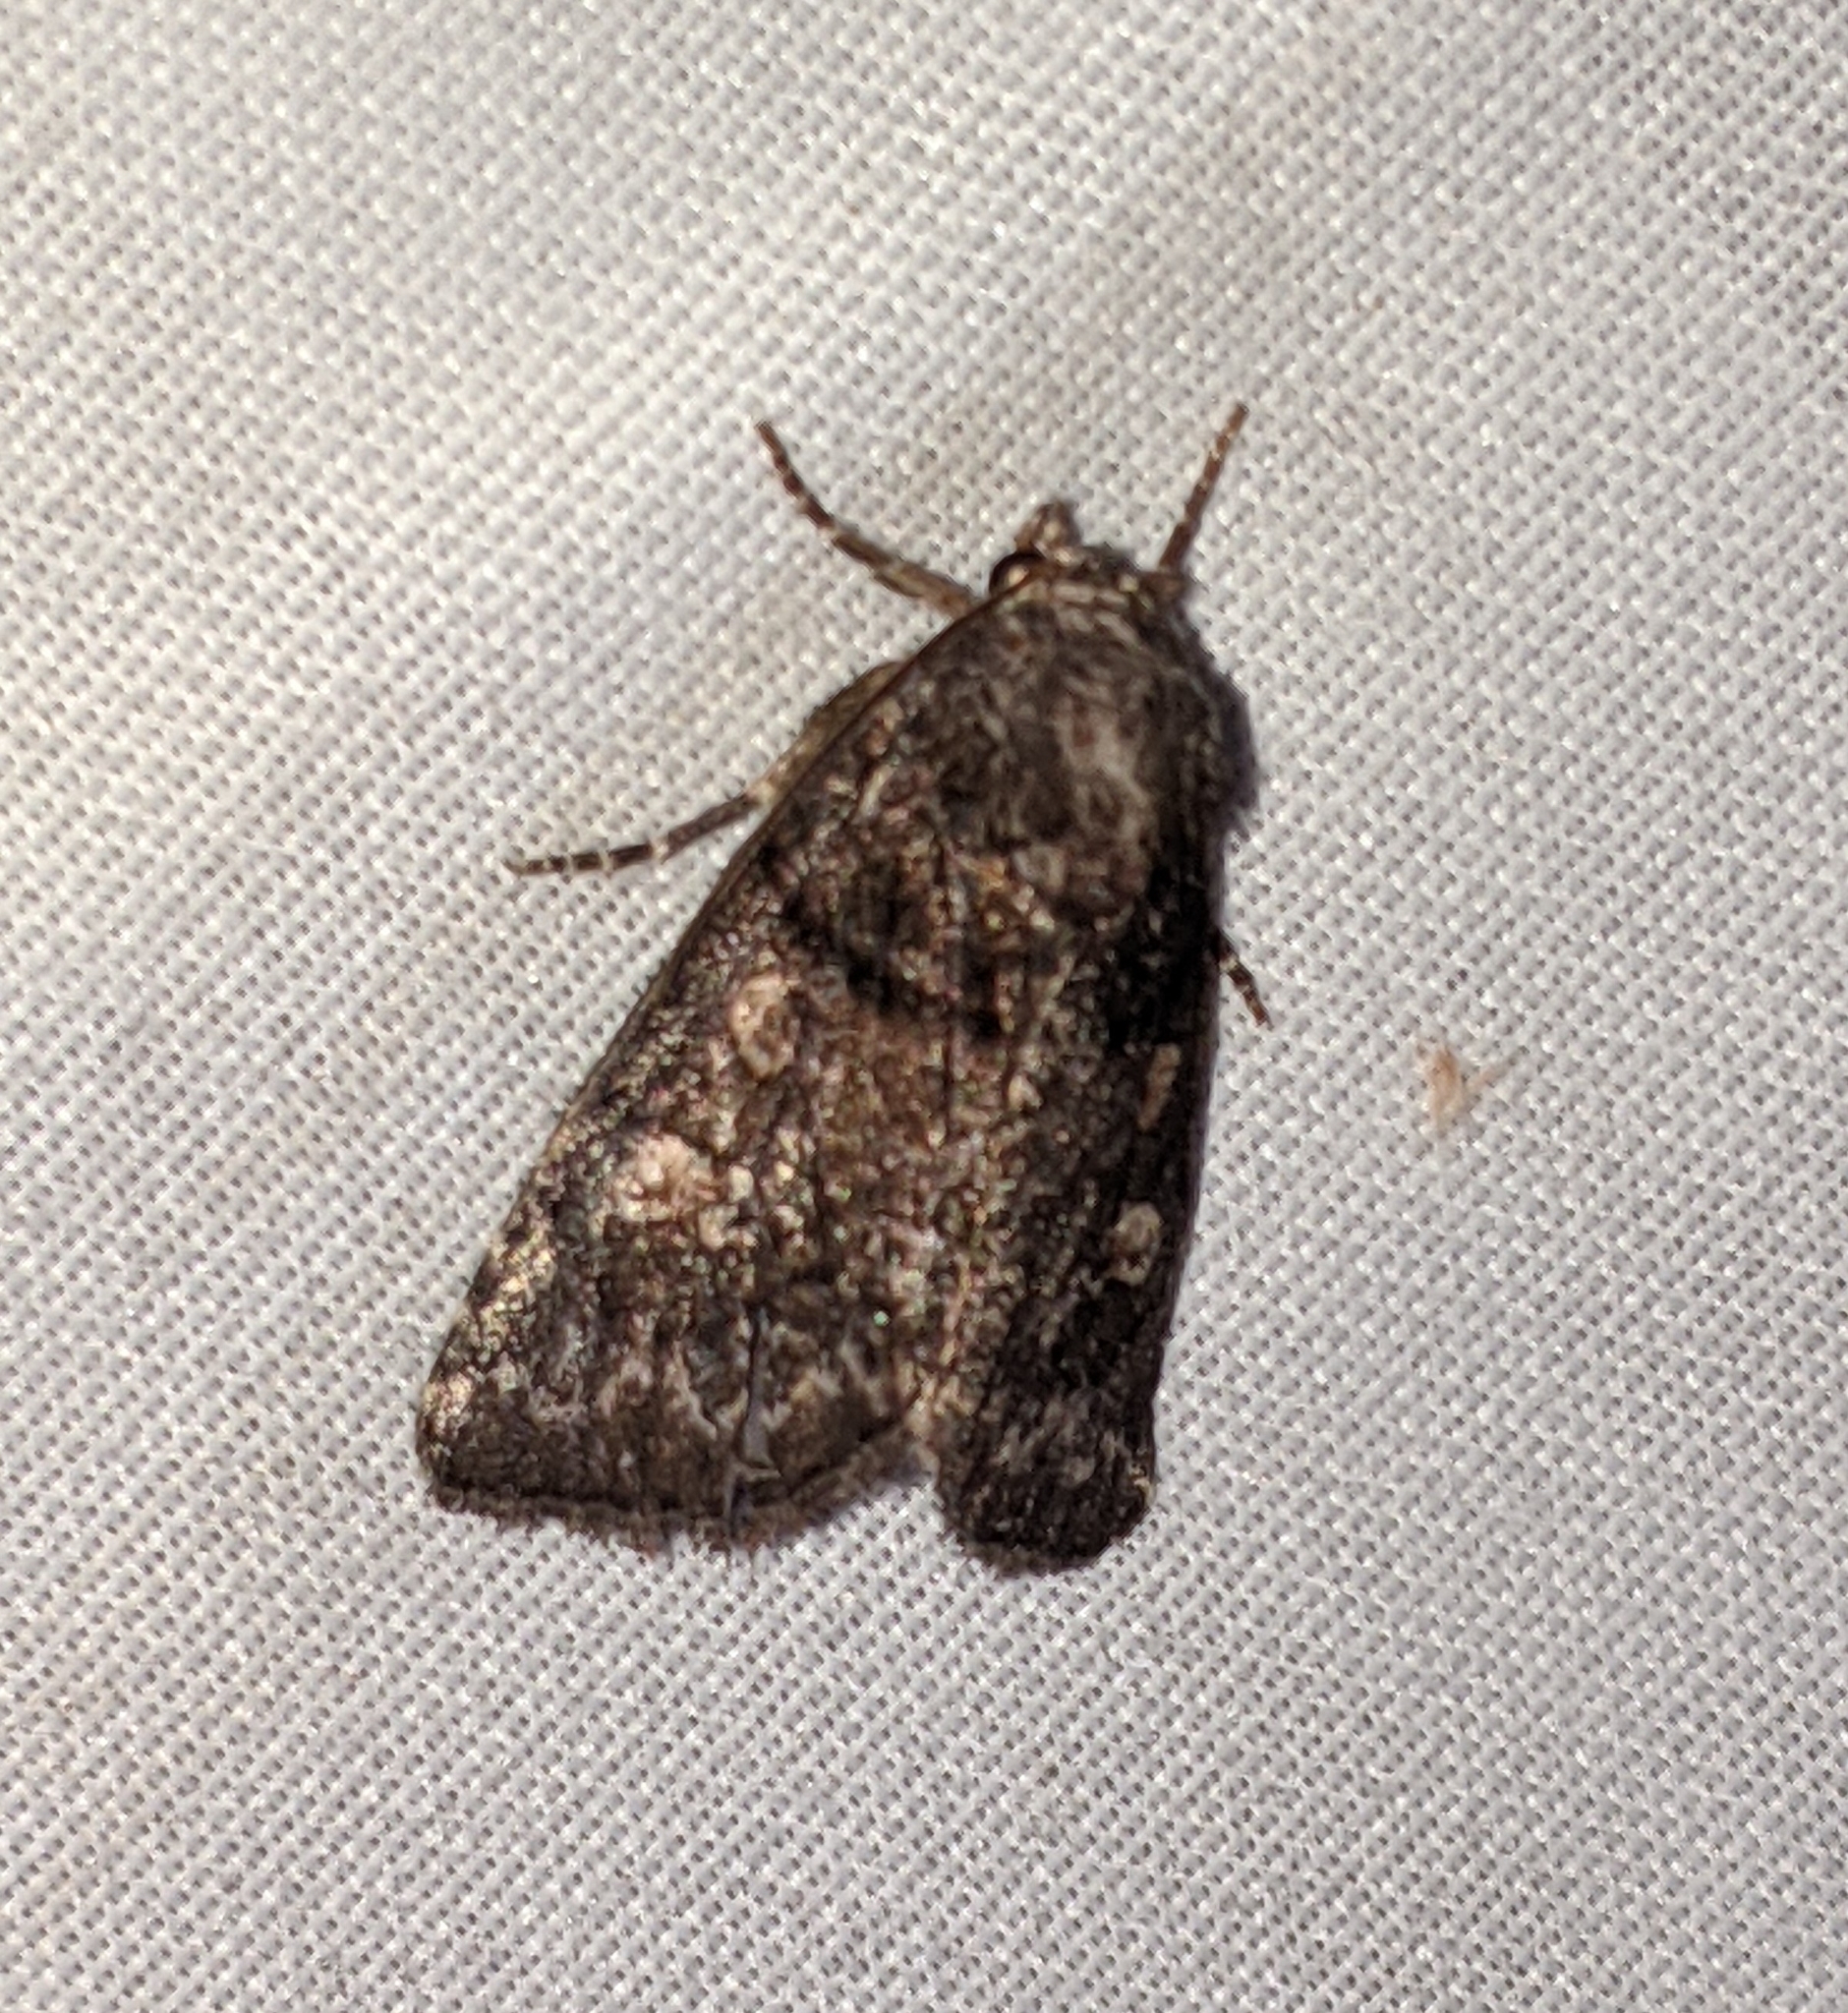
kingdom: Animalia
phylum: Arthropoda
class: Insecta
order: Lepidoptera
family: Noctuidae
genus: Cosmia
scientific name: Cosmia praeacuta
